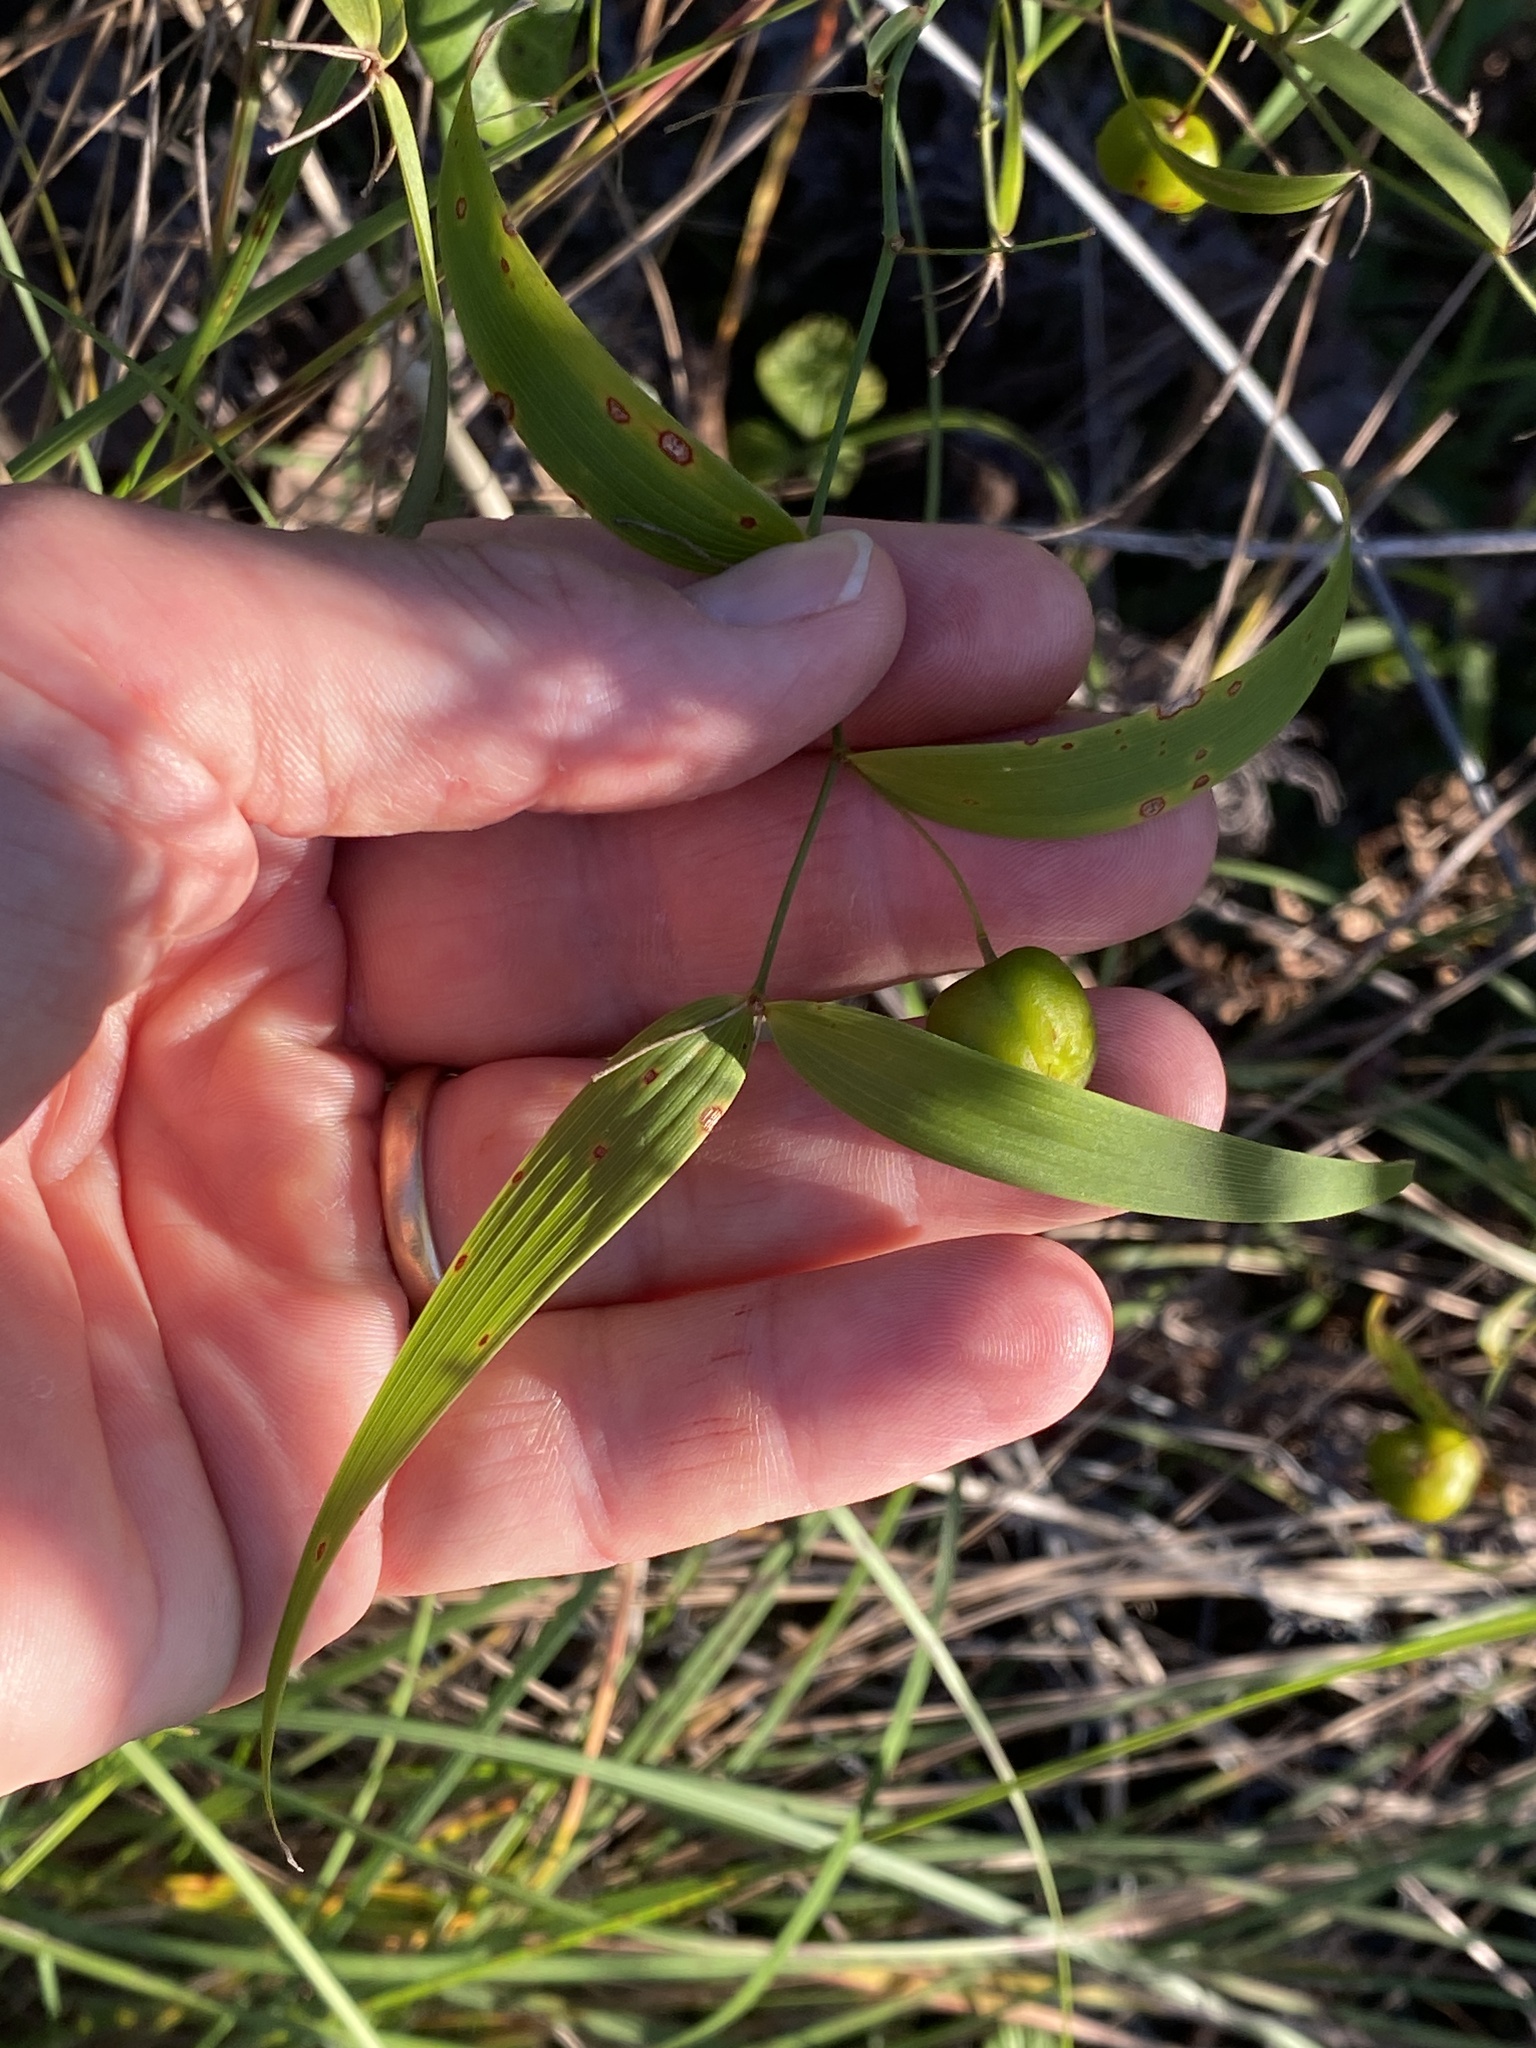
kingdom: Plantae
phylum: Tracheophyta
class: Liliopsida
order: Asparagales
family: Asparagaceae
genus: Eustrephus
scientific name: Eustrephus latifolius
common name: Orangevine
